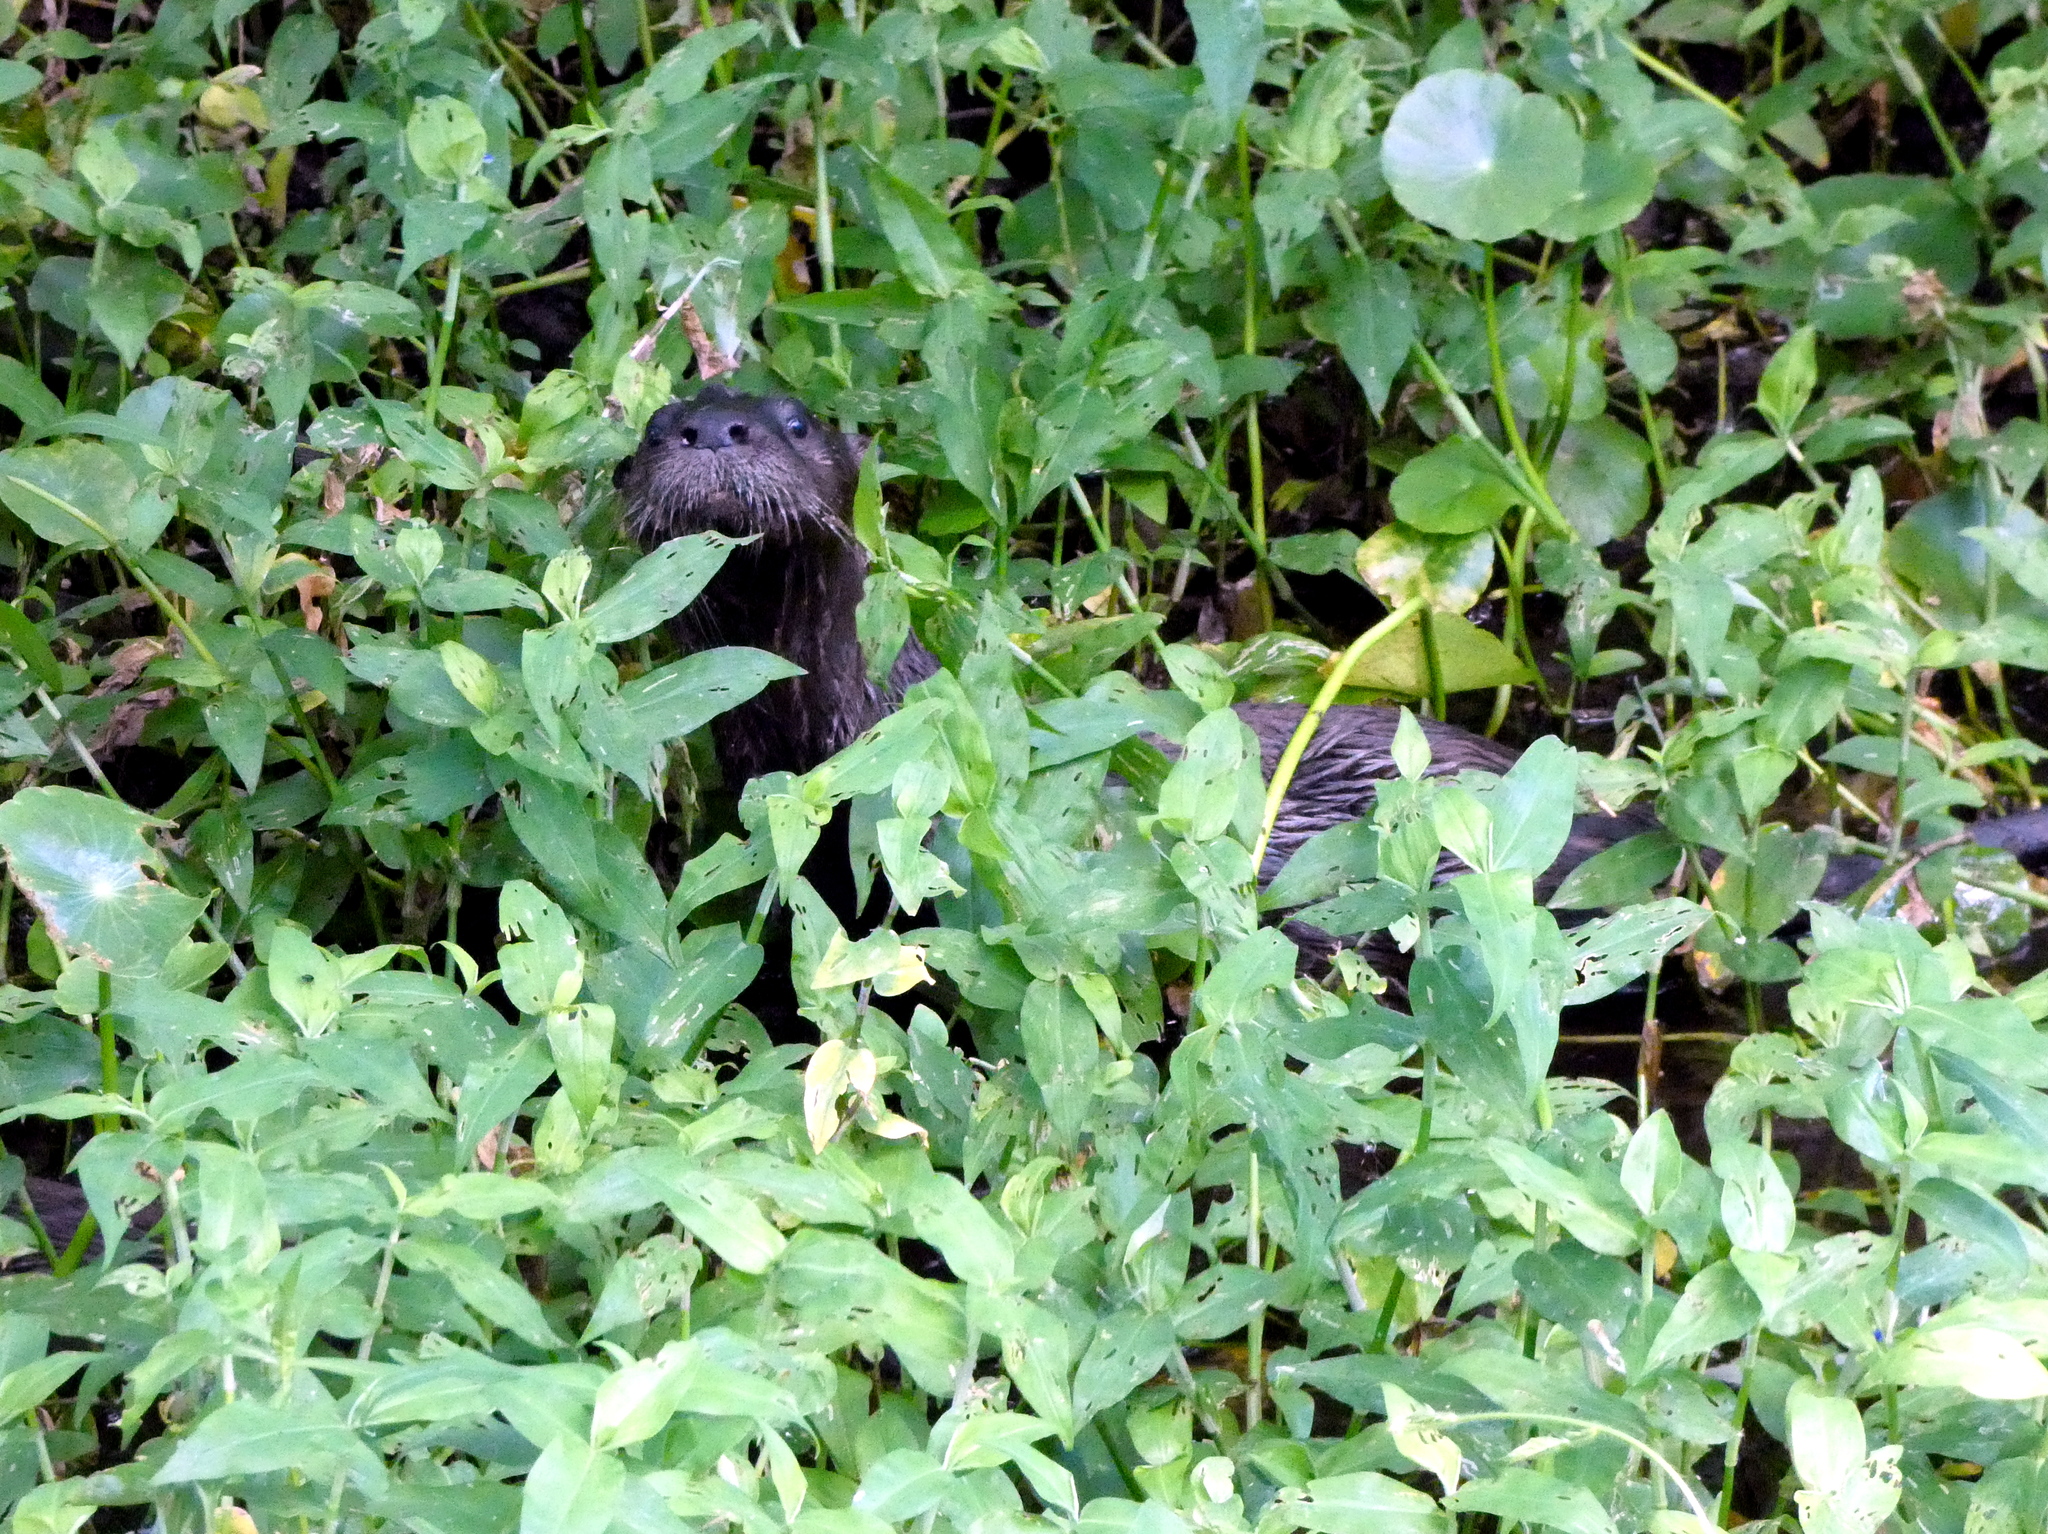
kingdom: Animalia
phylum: Chordata
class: Mammalia
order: Carnivora
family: Mustelidae
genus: Lontra
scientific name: Lontra canadensis
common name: North american river otter
